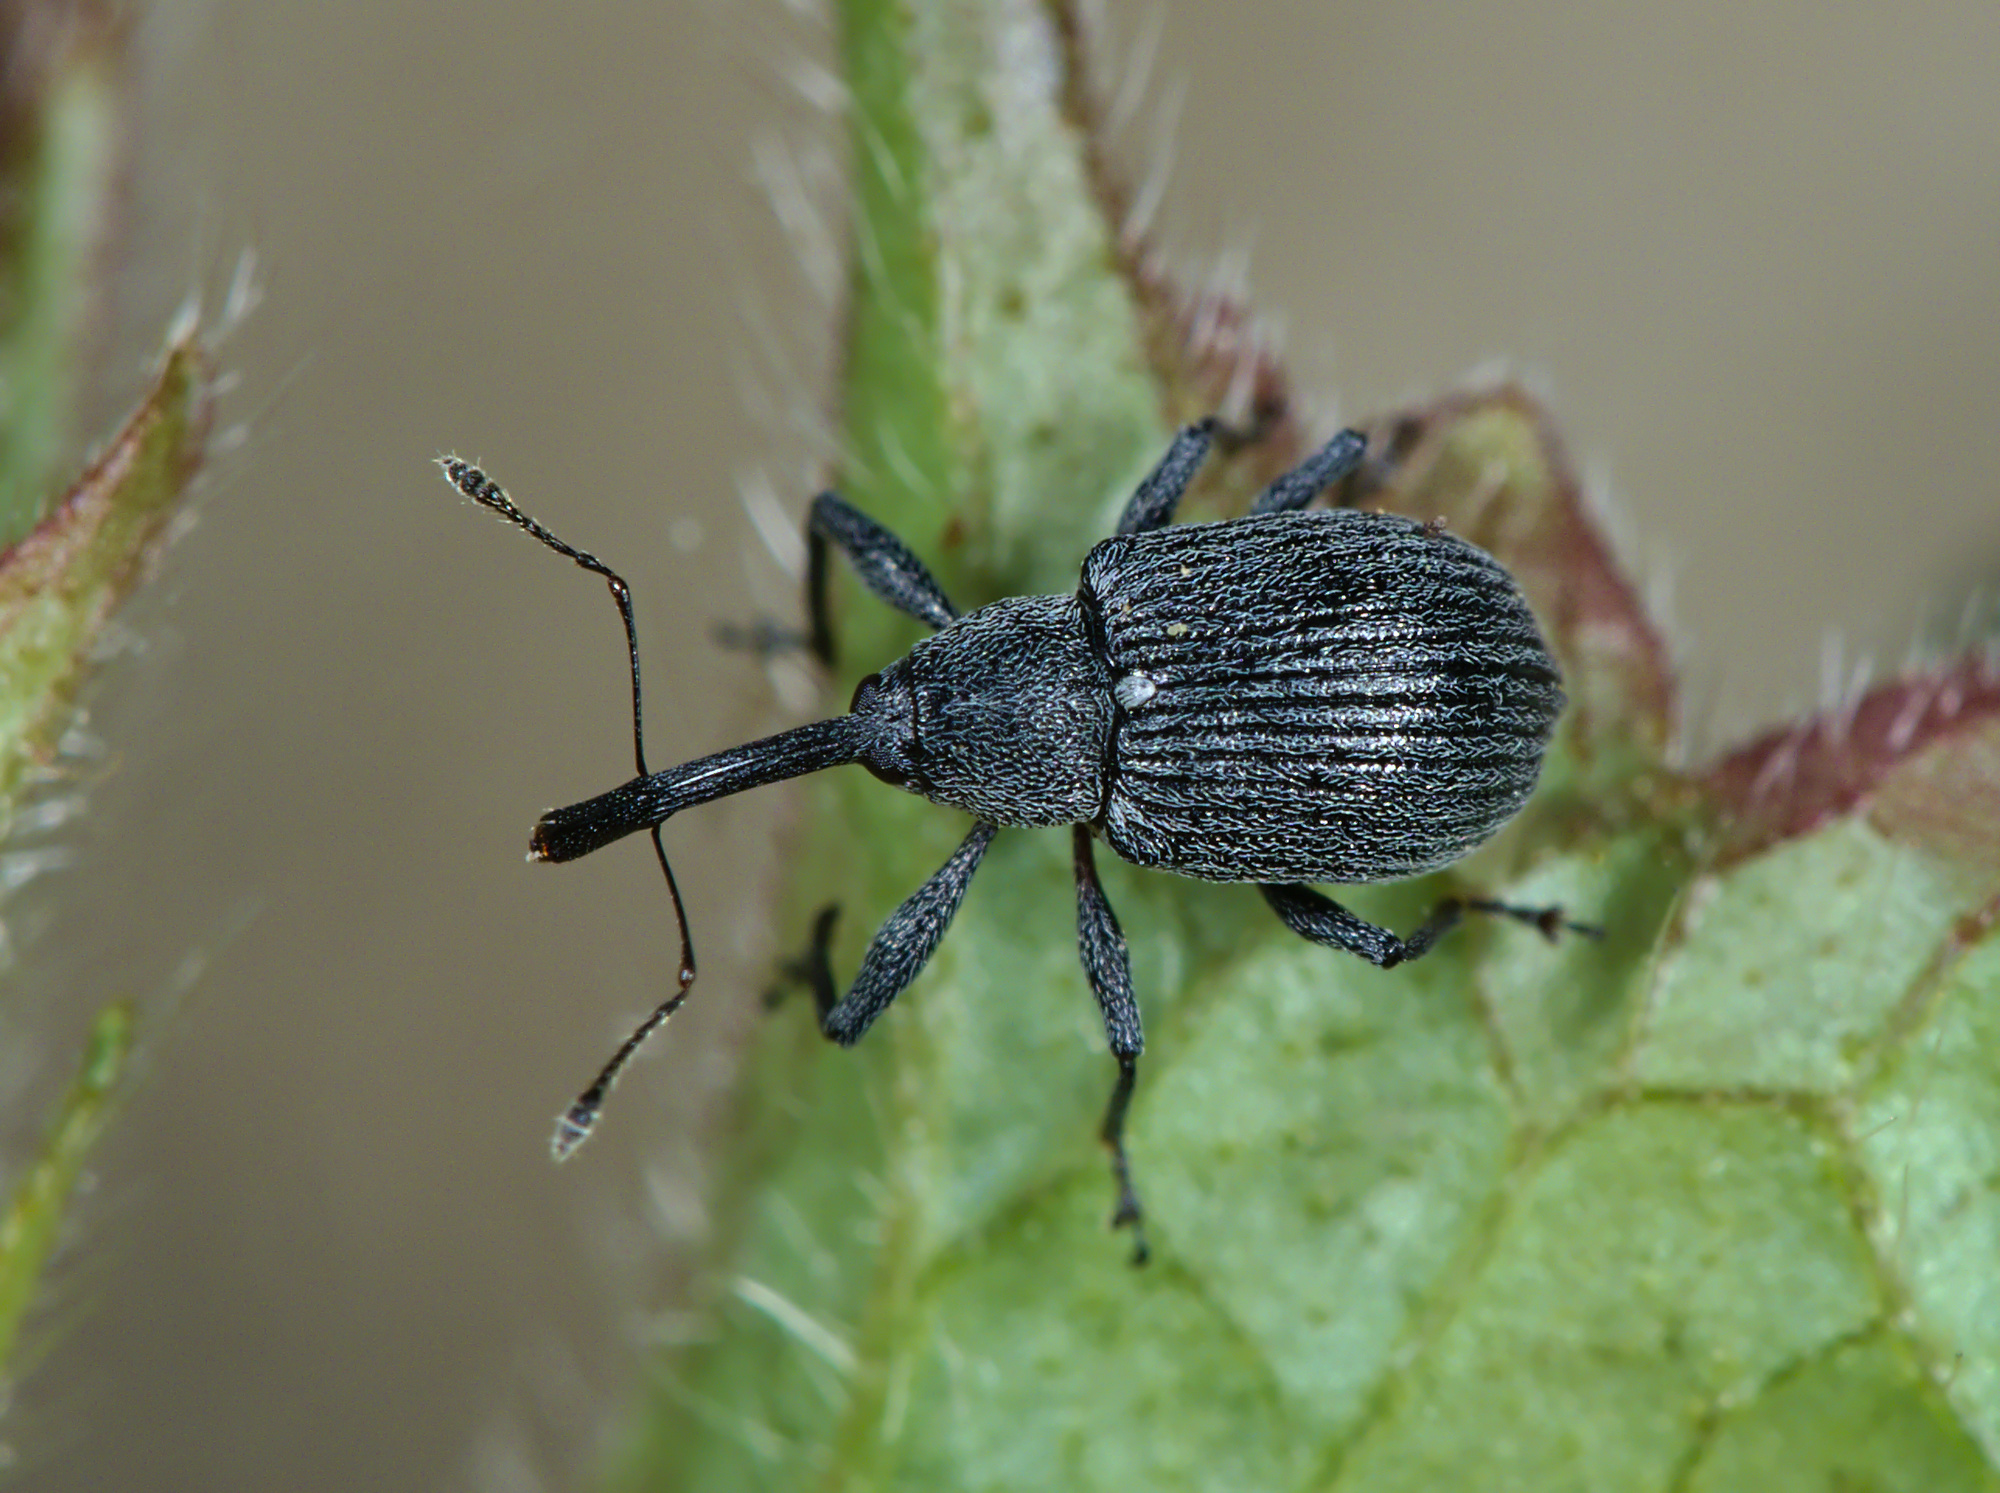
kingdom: Animalia
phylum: Arthropoda
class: Insecta
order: Coleoptera
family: Curculionidae
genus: Anthonomus
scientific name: Anthonomus rubi
